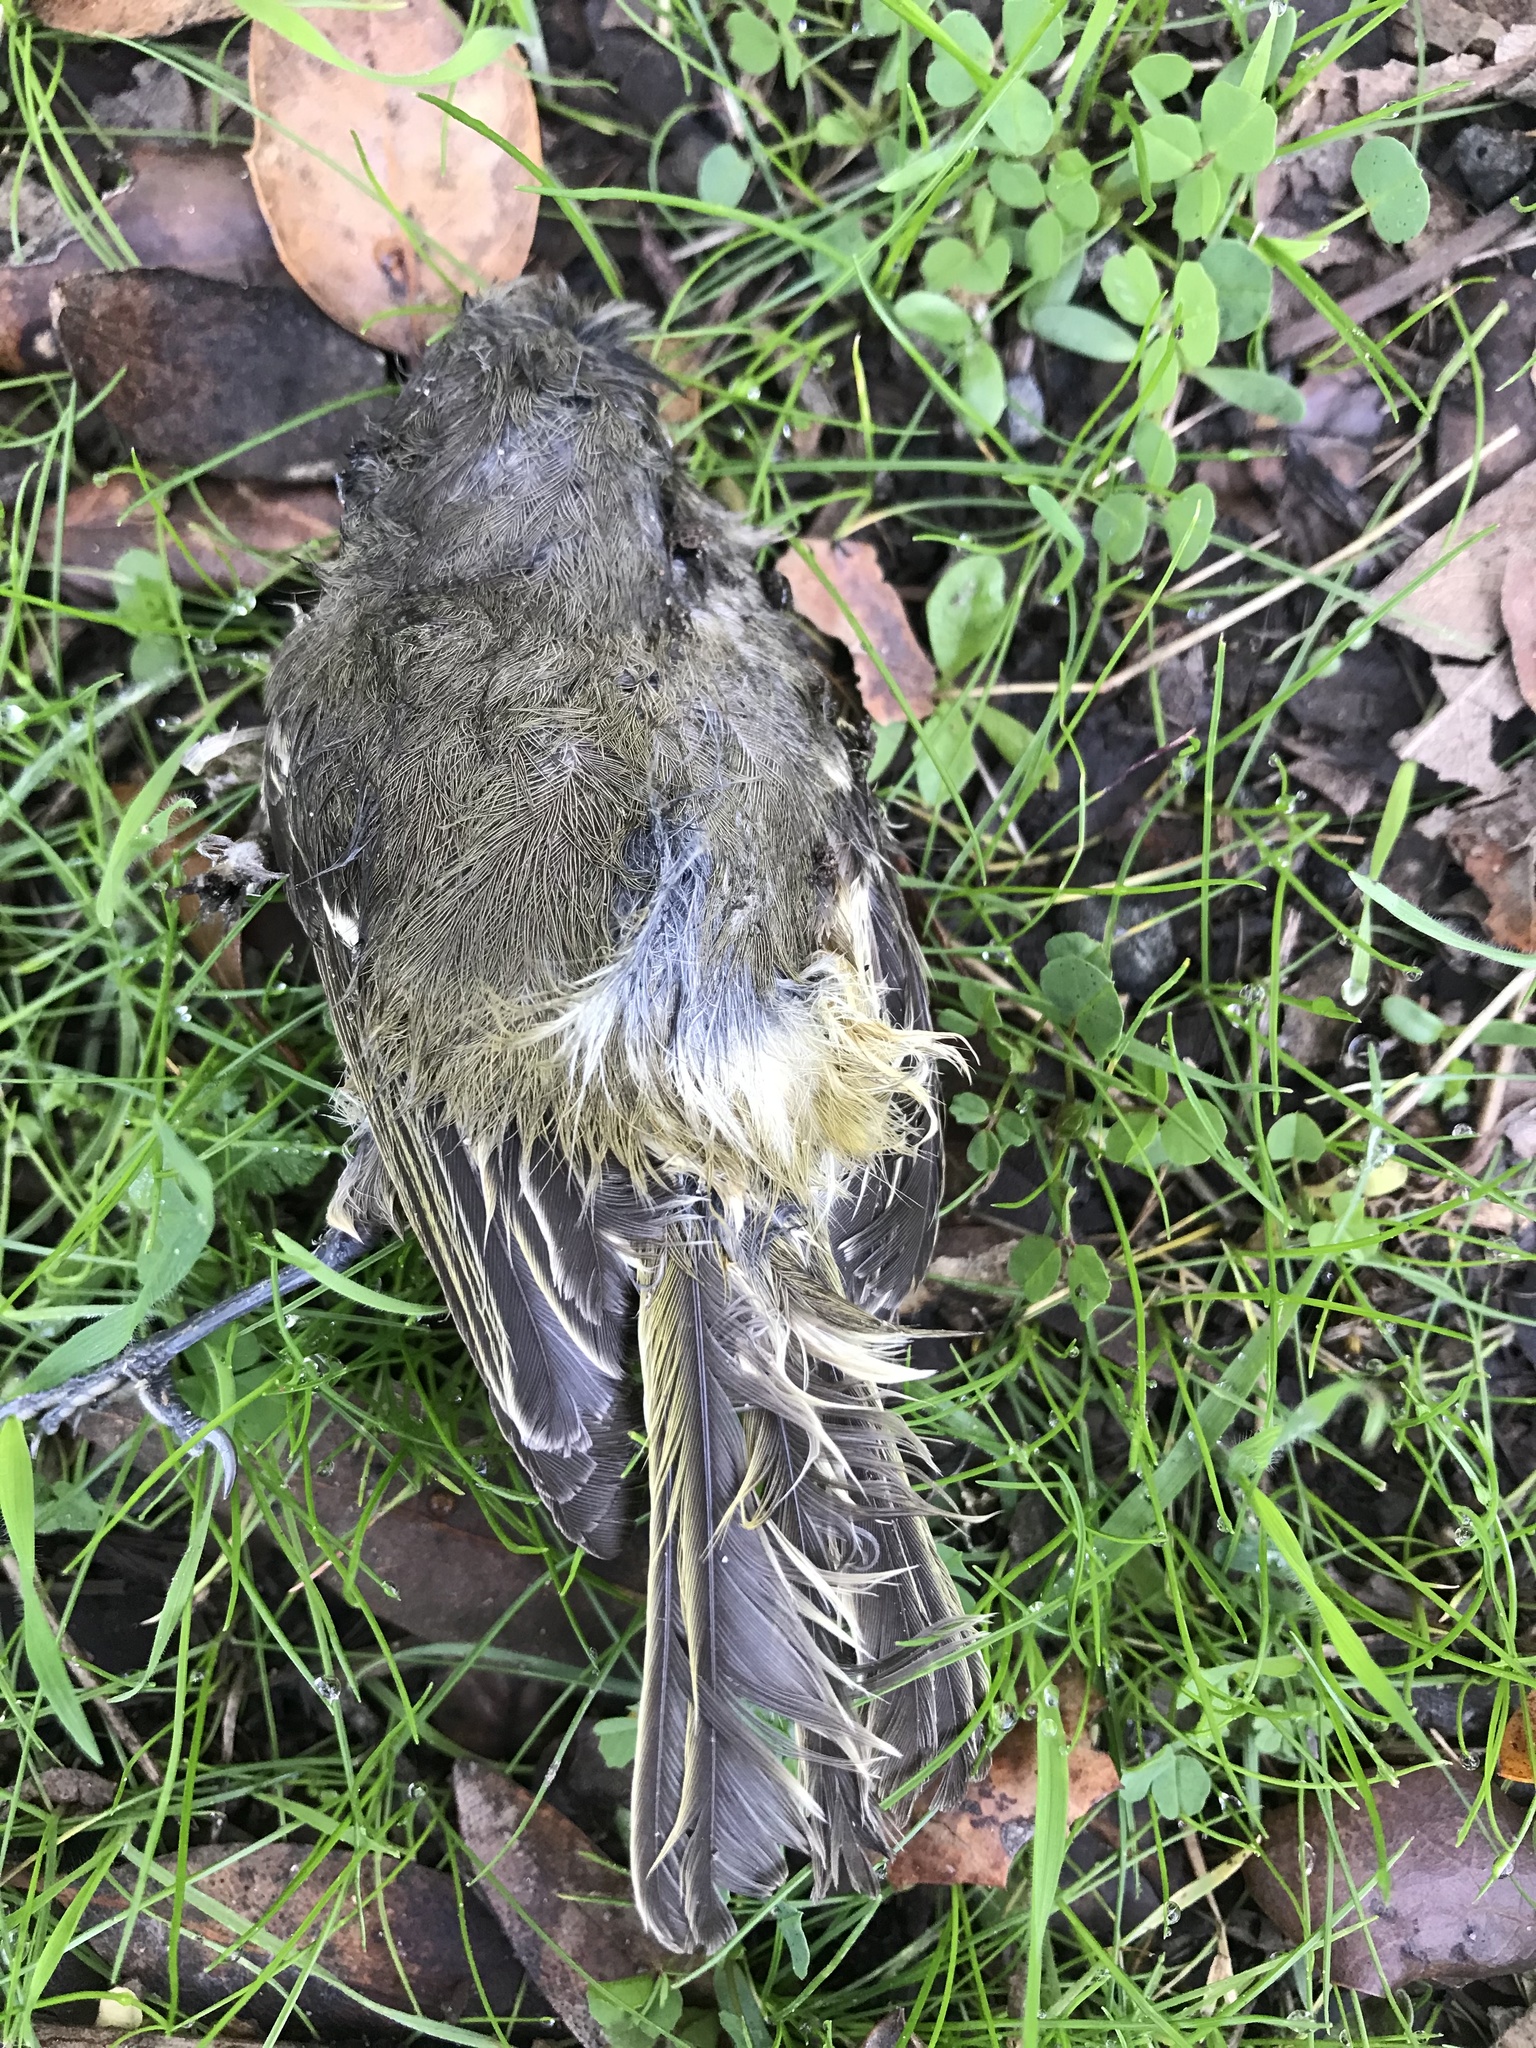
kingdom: Animalia
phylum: Chordata
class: Aves
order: Passeriformes
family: Vireonidae
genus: Vireo
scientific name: Vireo huttoni
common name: Hutton's vireo
